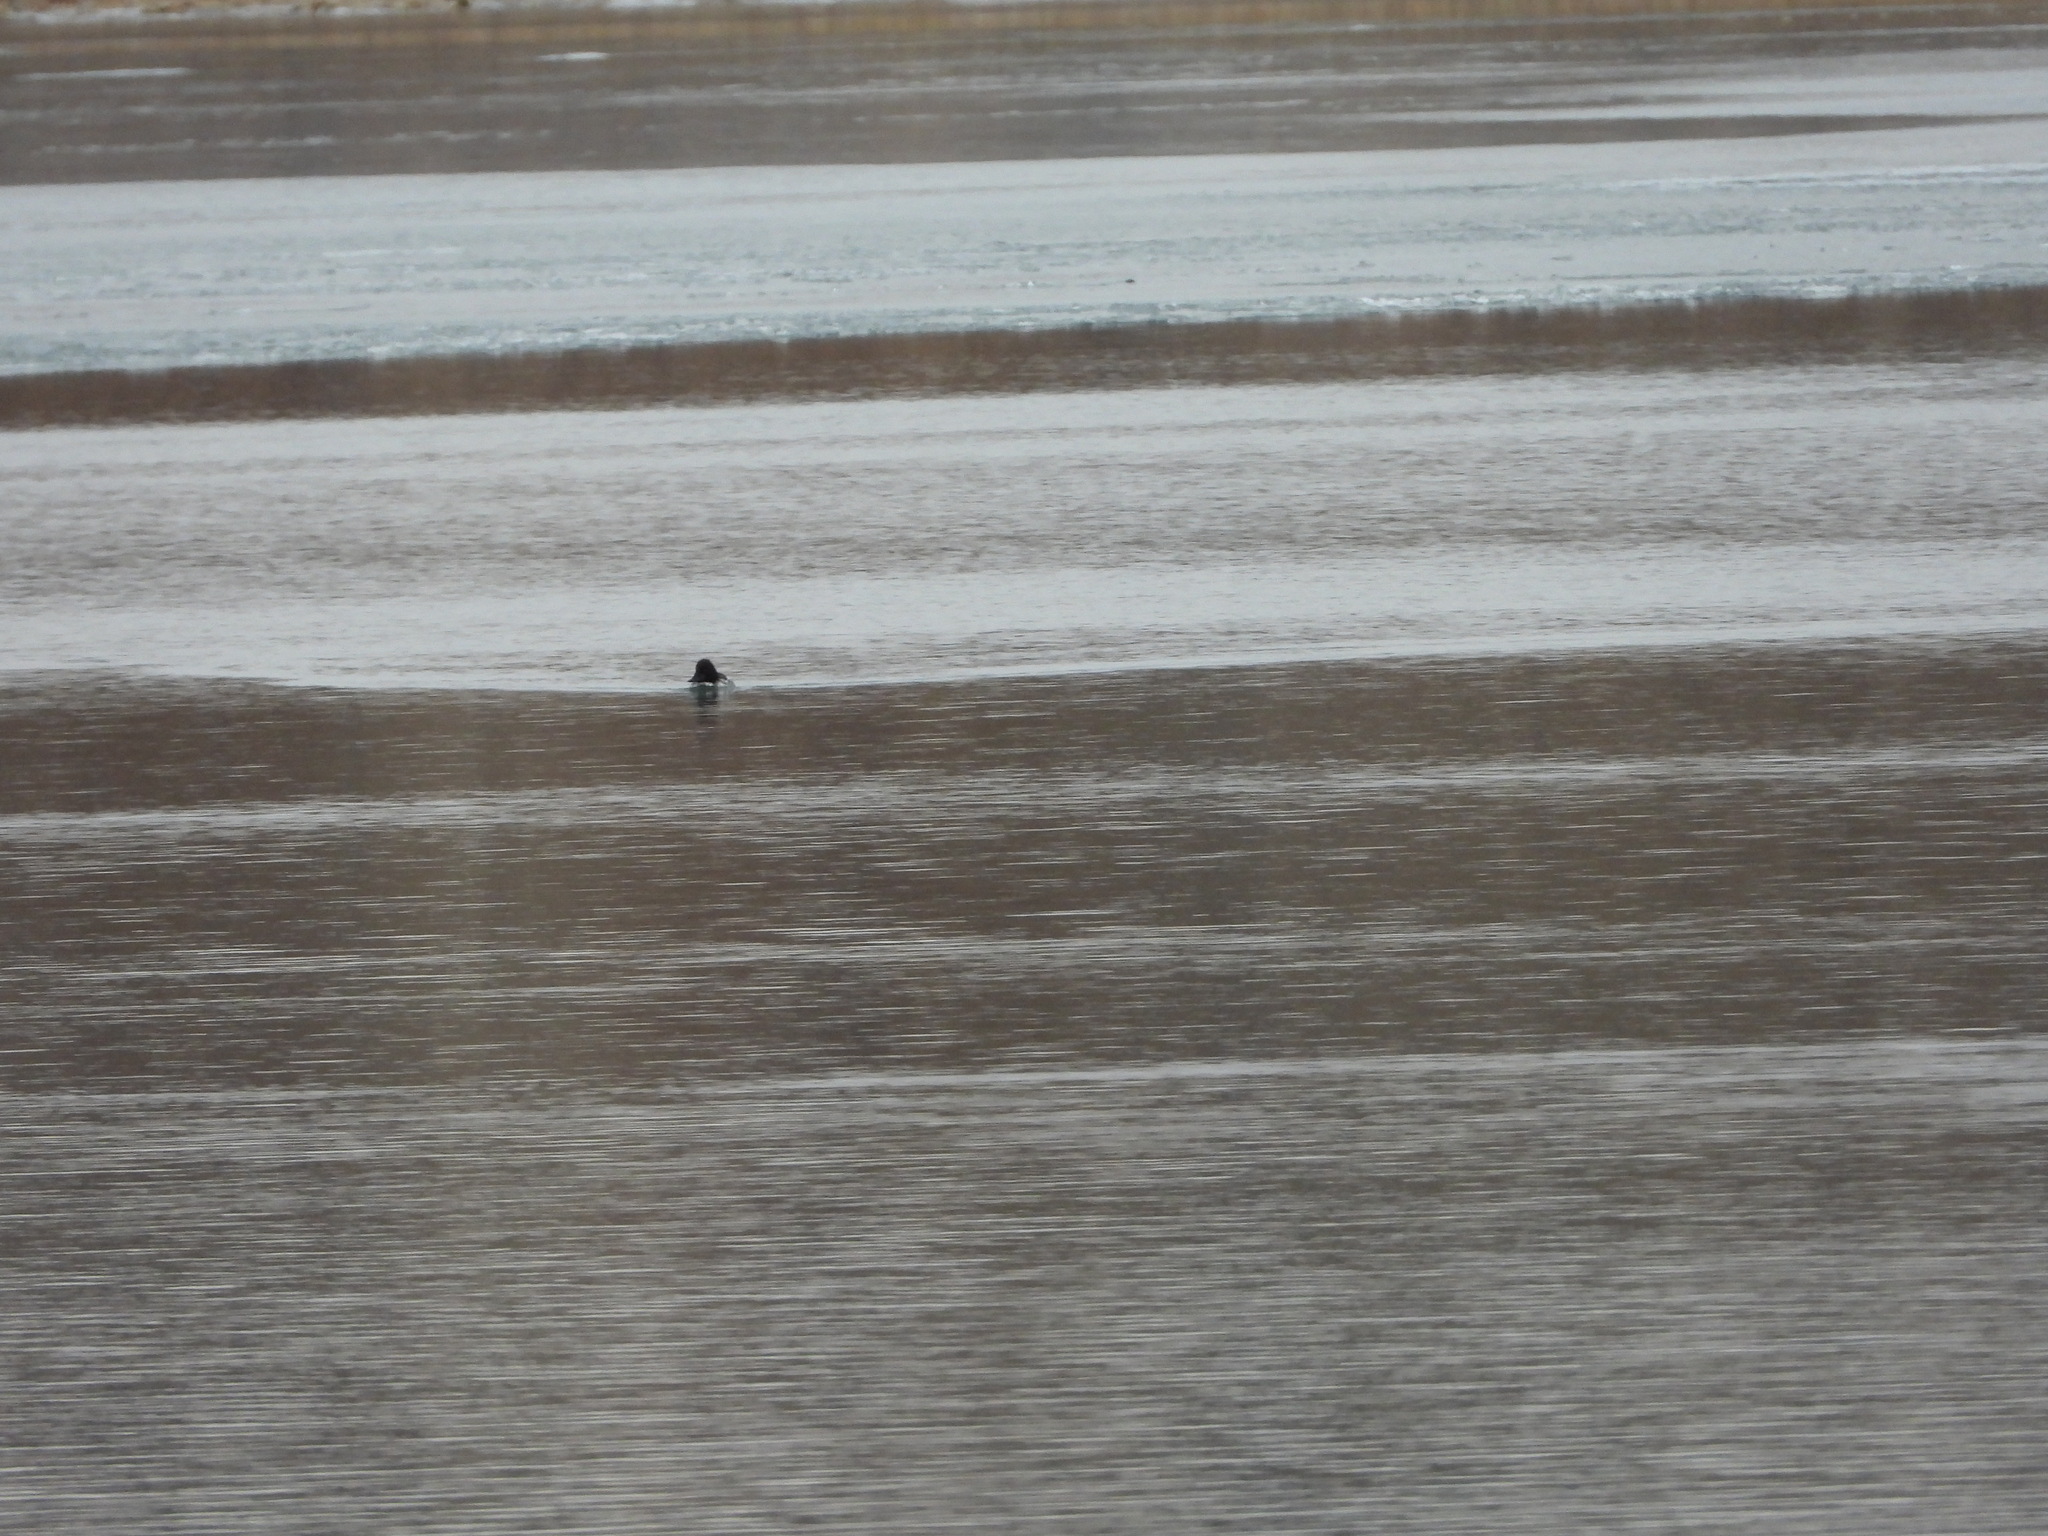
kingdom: Animalia
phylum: Chordata
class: Aves
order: Anseriformes
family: Anatidae
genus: Bucephala
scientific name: Bucephala clangula
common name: Common goldeneye
